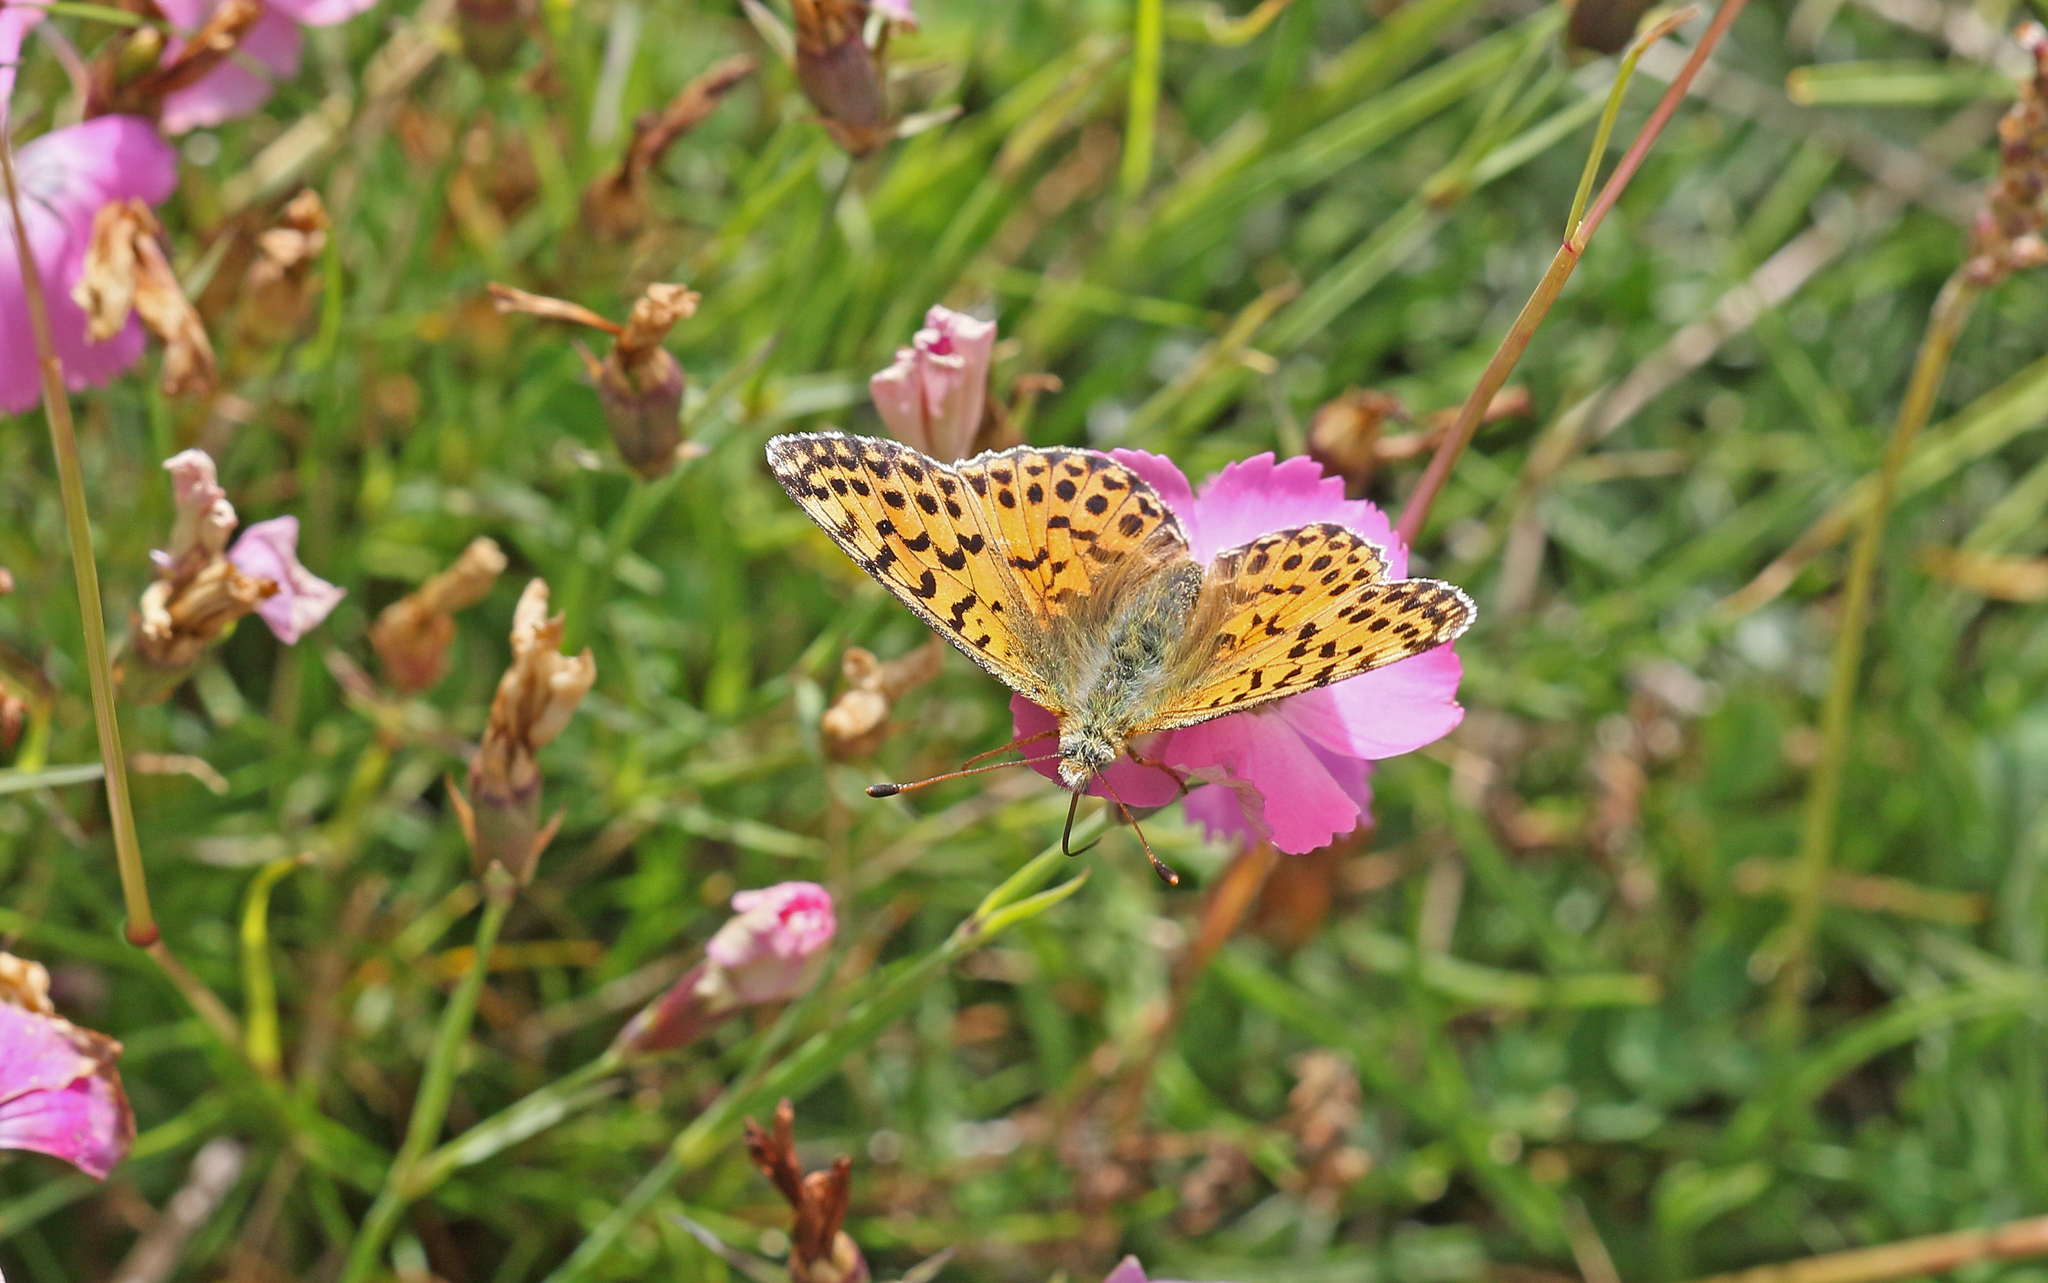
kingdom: Animalia
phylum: Arthropoda
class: Insecta
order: Lepidoptera
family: Nymphalidae
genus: Boloria
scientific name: Boloria graeca
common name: Balkan fritillary
